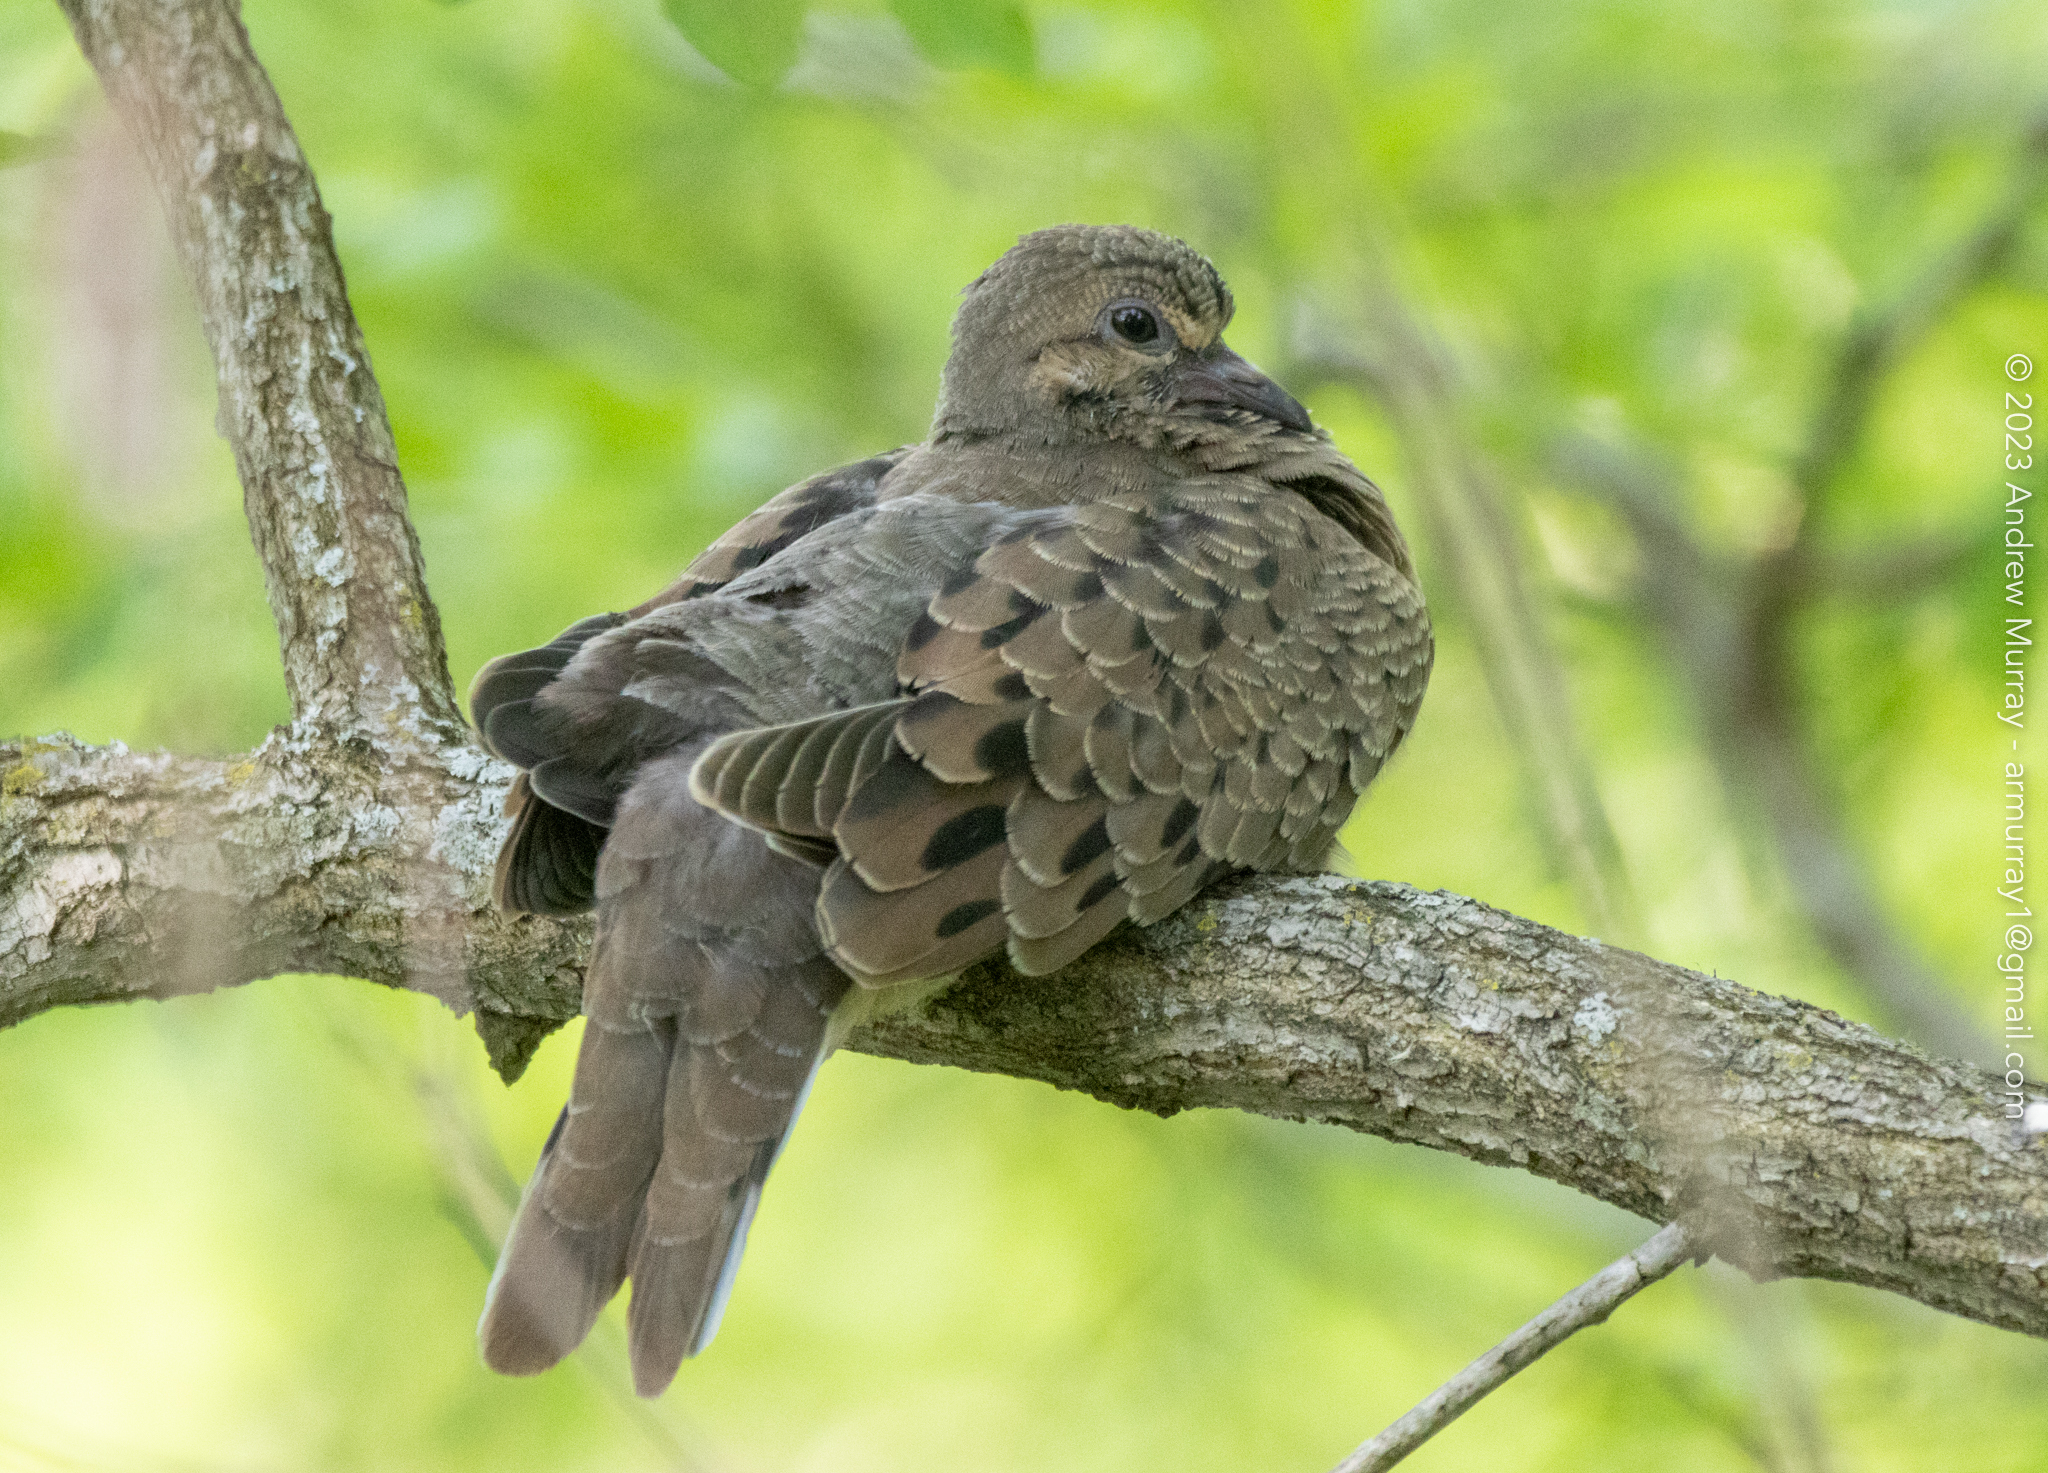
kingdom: Animalia
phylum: Chordata
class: Aves
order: Columbiformes
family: Columbidae
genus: Zenaida
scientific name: Zenaida macroura
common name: Mourning dove
